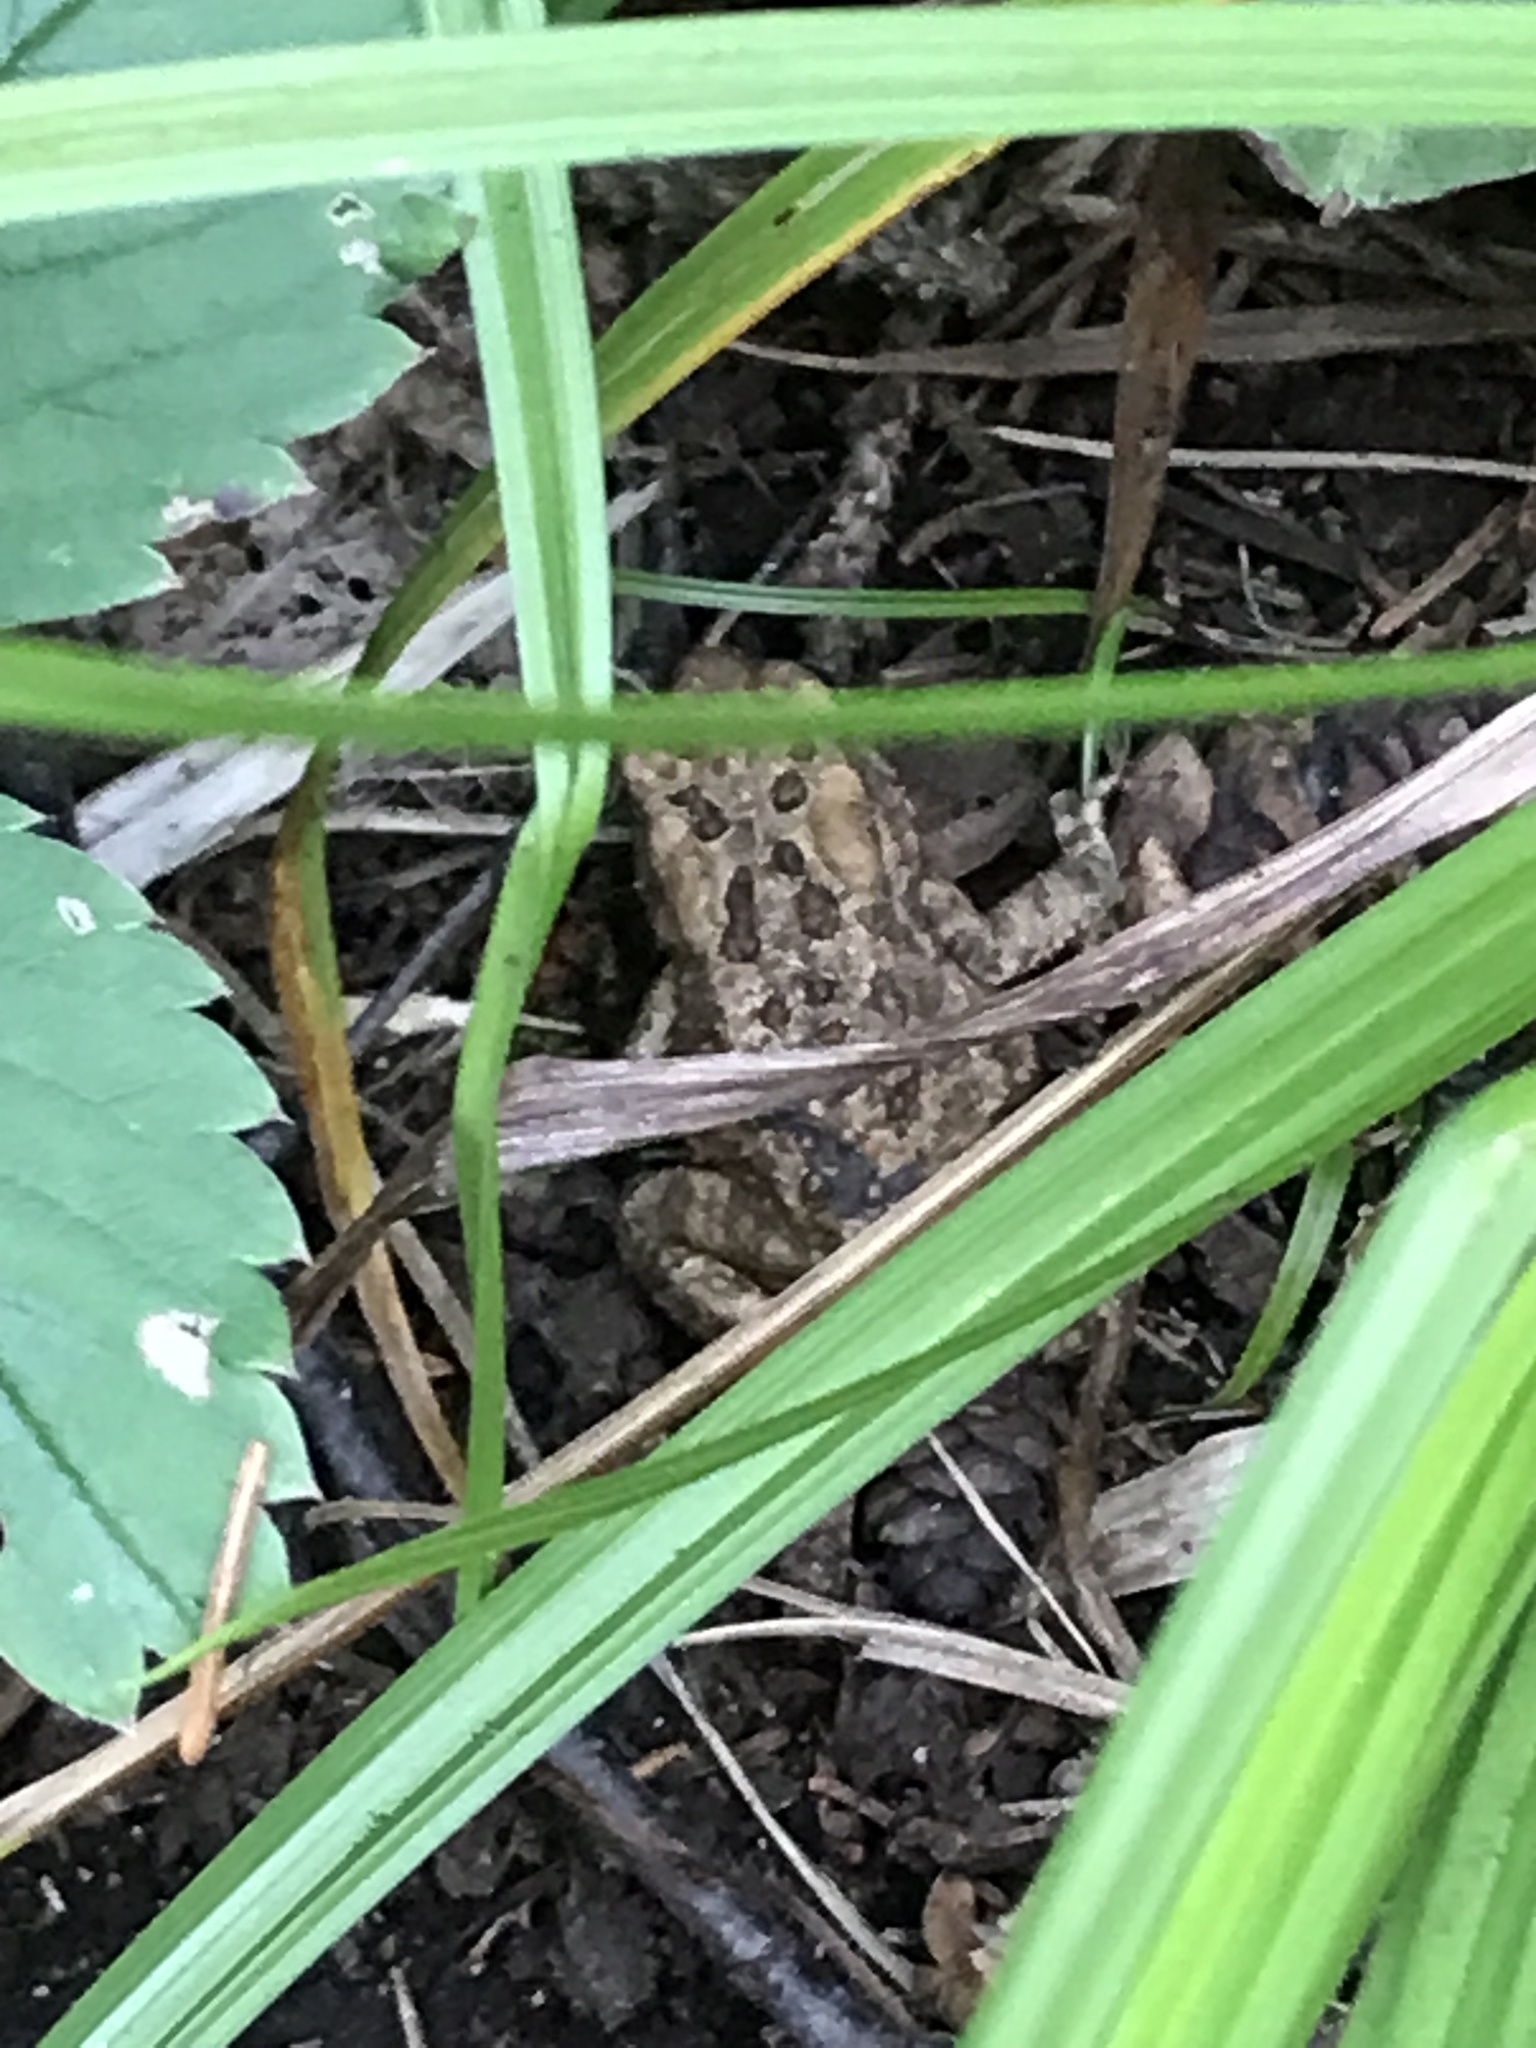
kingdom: Animalia
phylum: Chordata
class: Amphibia
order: Anura
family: Bufonidae
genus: Anaxyrus
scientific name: Anaxyrus americanus
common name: American toad
